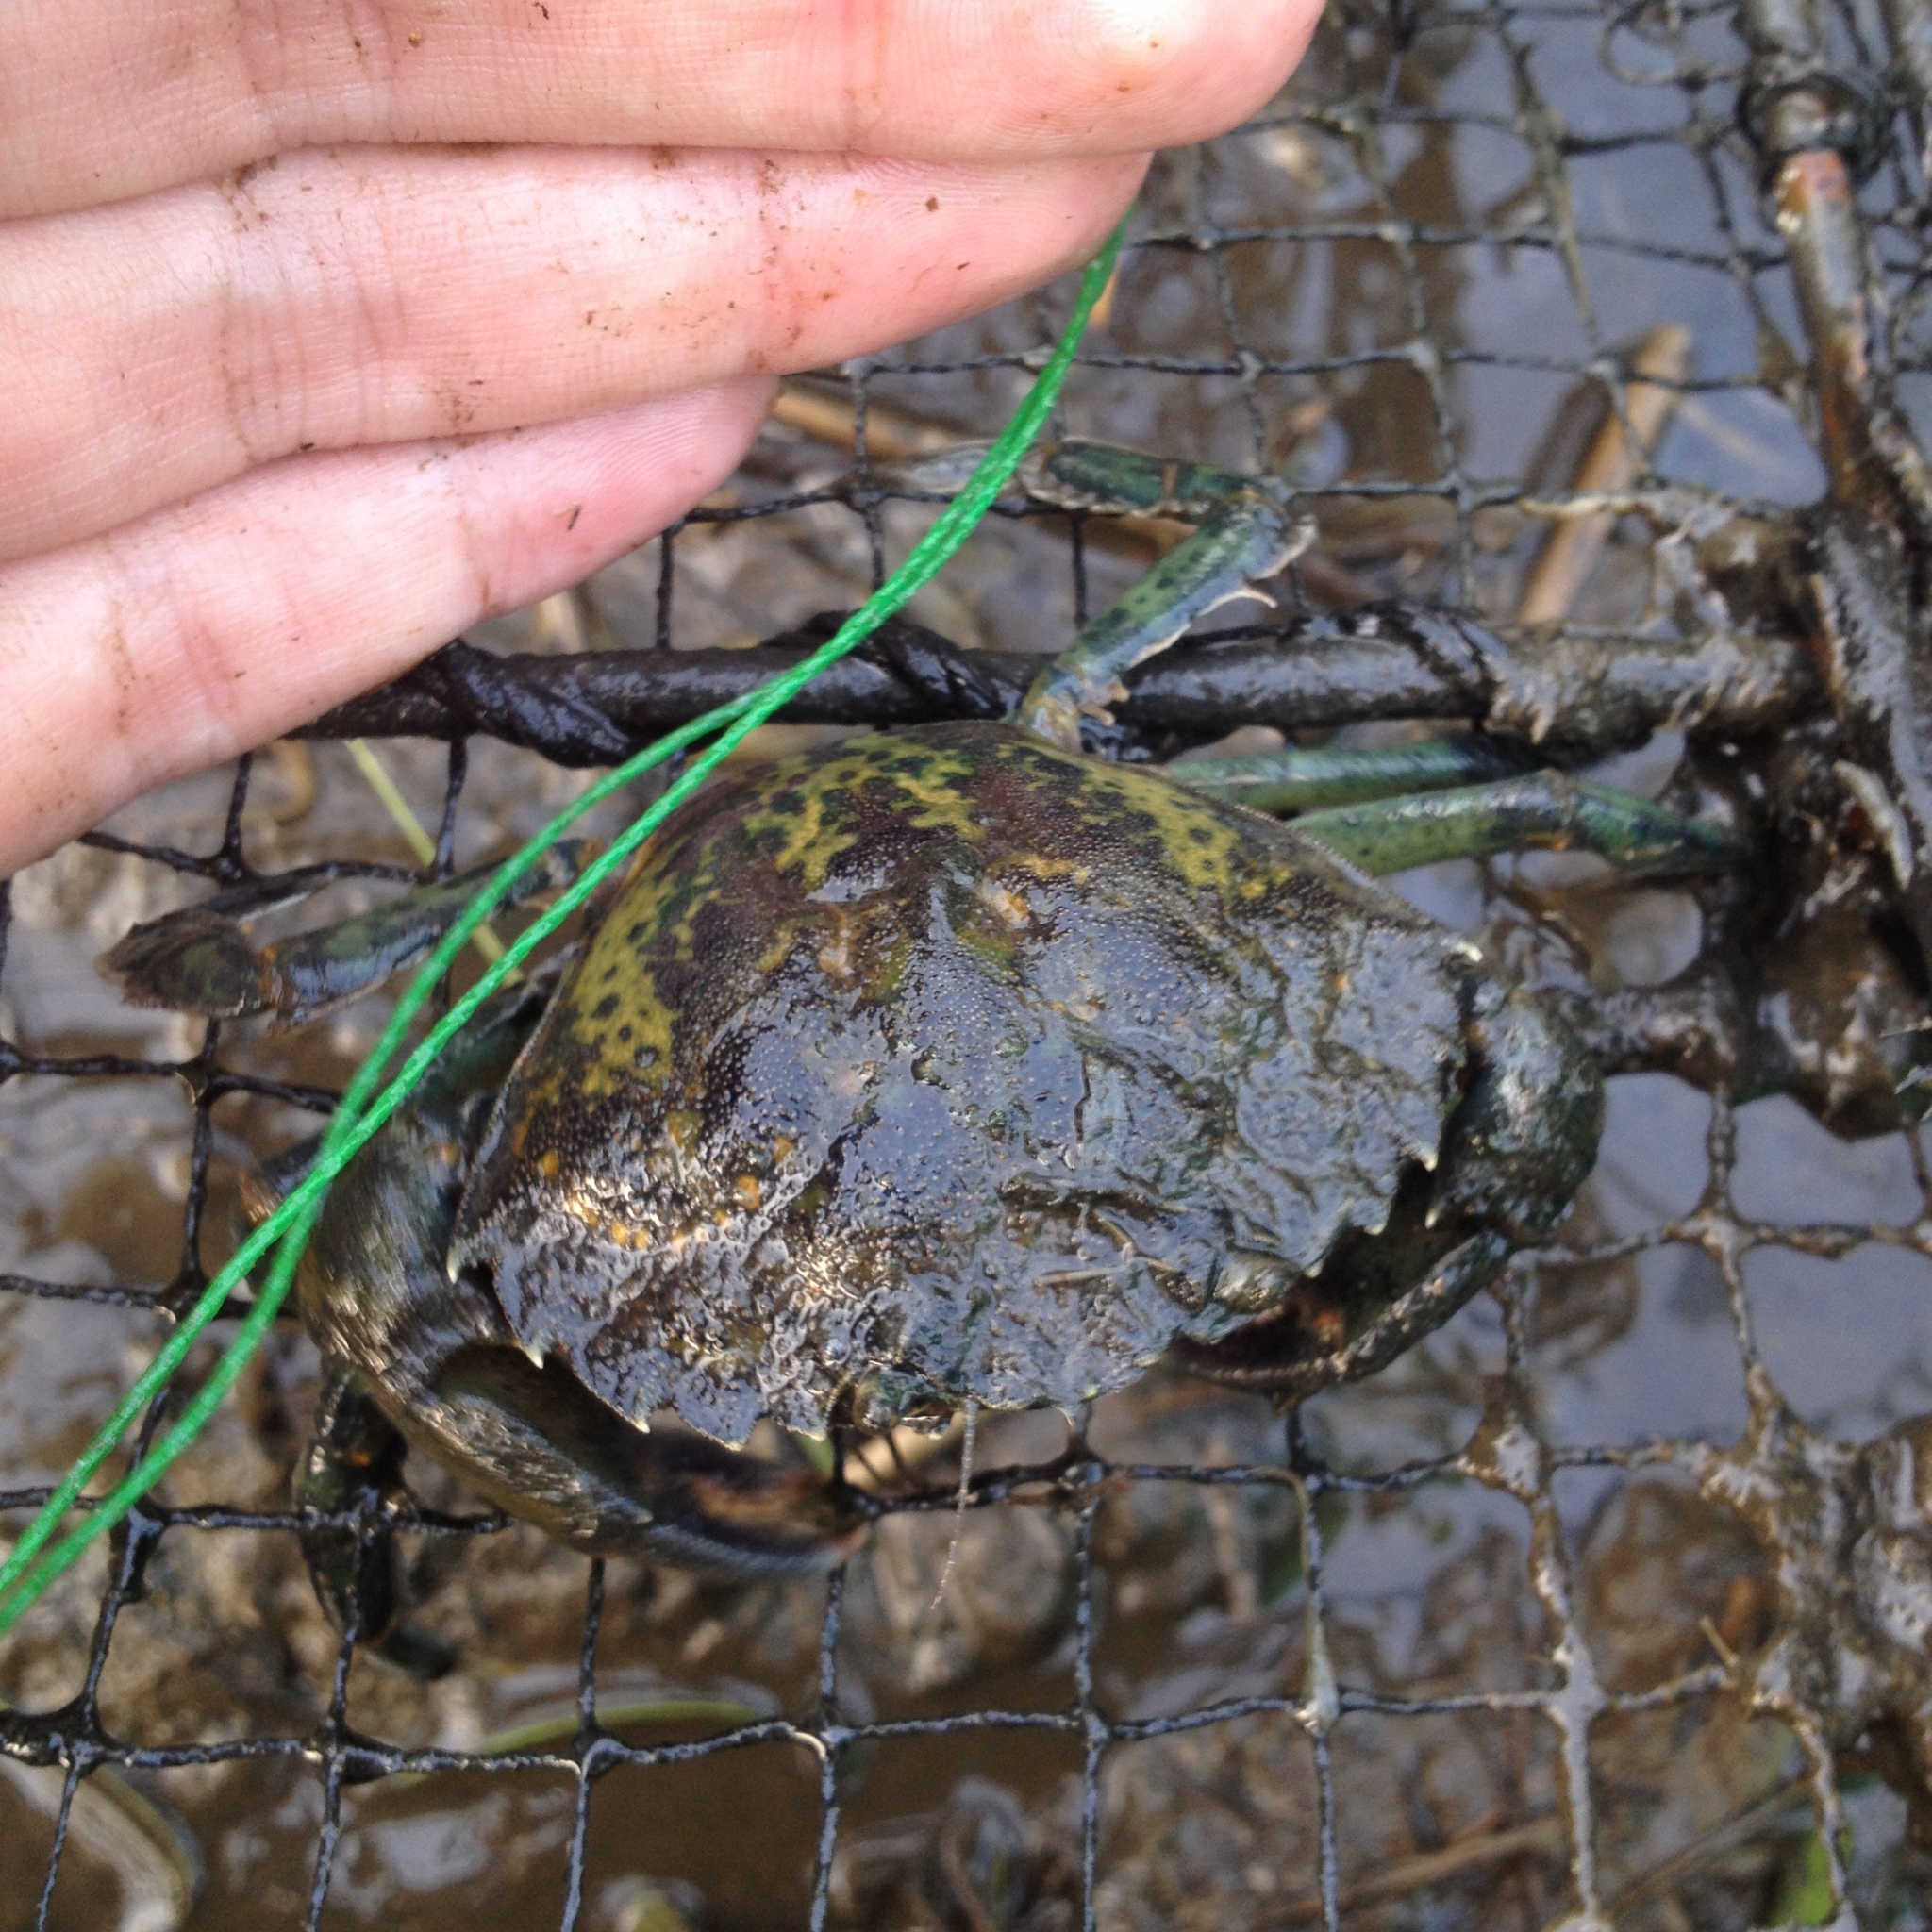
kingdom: Animalia
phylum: Arthropoda
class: Malacostraca
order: Decapoda
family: Carcinidae
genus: Carcinus
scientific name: Carcinus maenas
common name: European green crab
